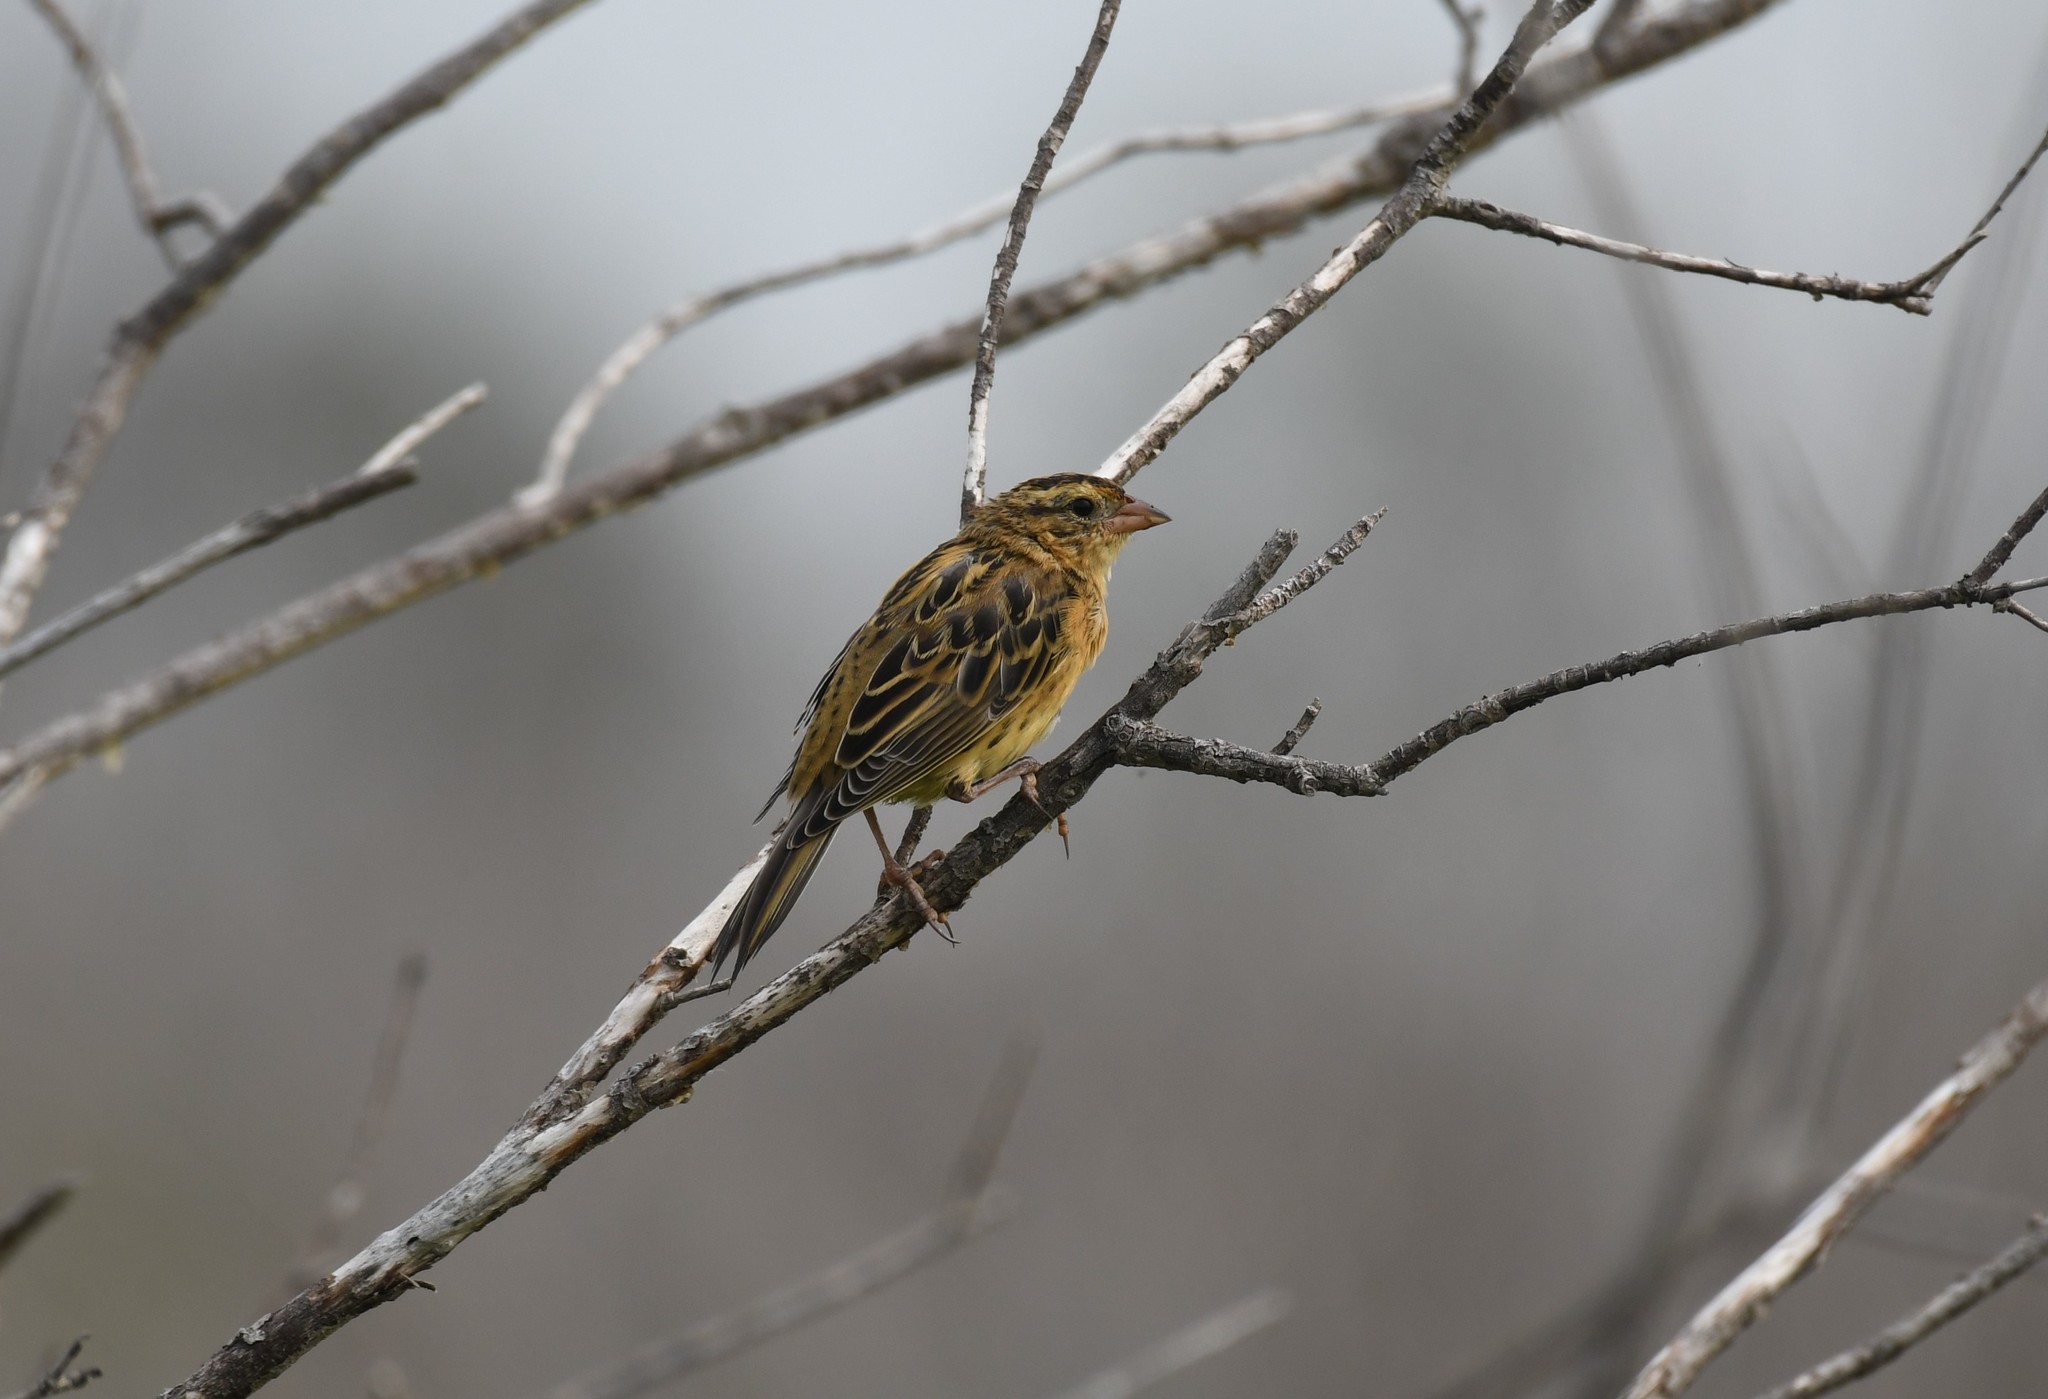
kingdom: Animalia
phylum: Chordata
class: Aves
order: Passeriformes
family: Icteridae
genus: Dolichonyx
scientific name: Dolichonyx oryzivorus
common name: Bobolink
